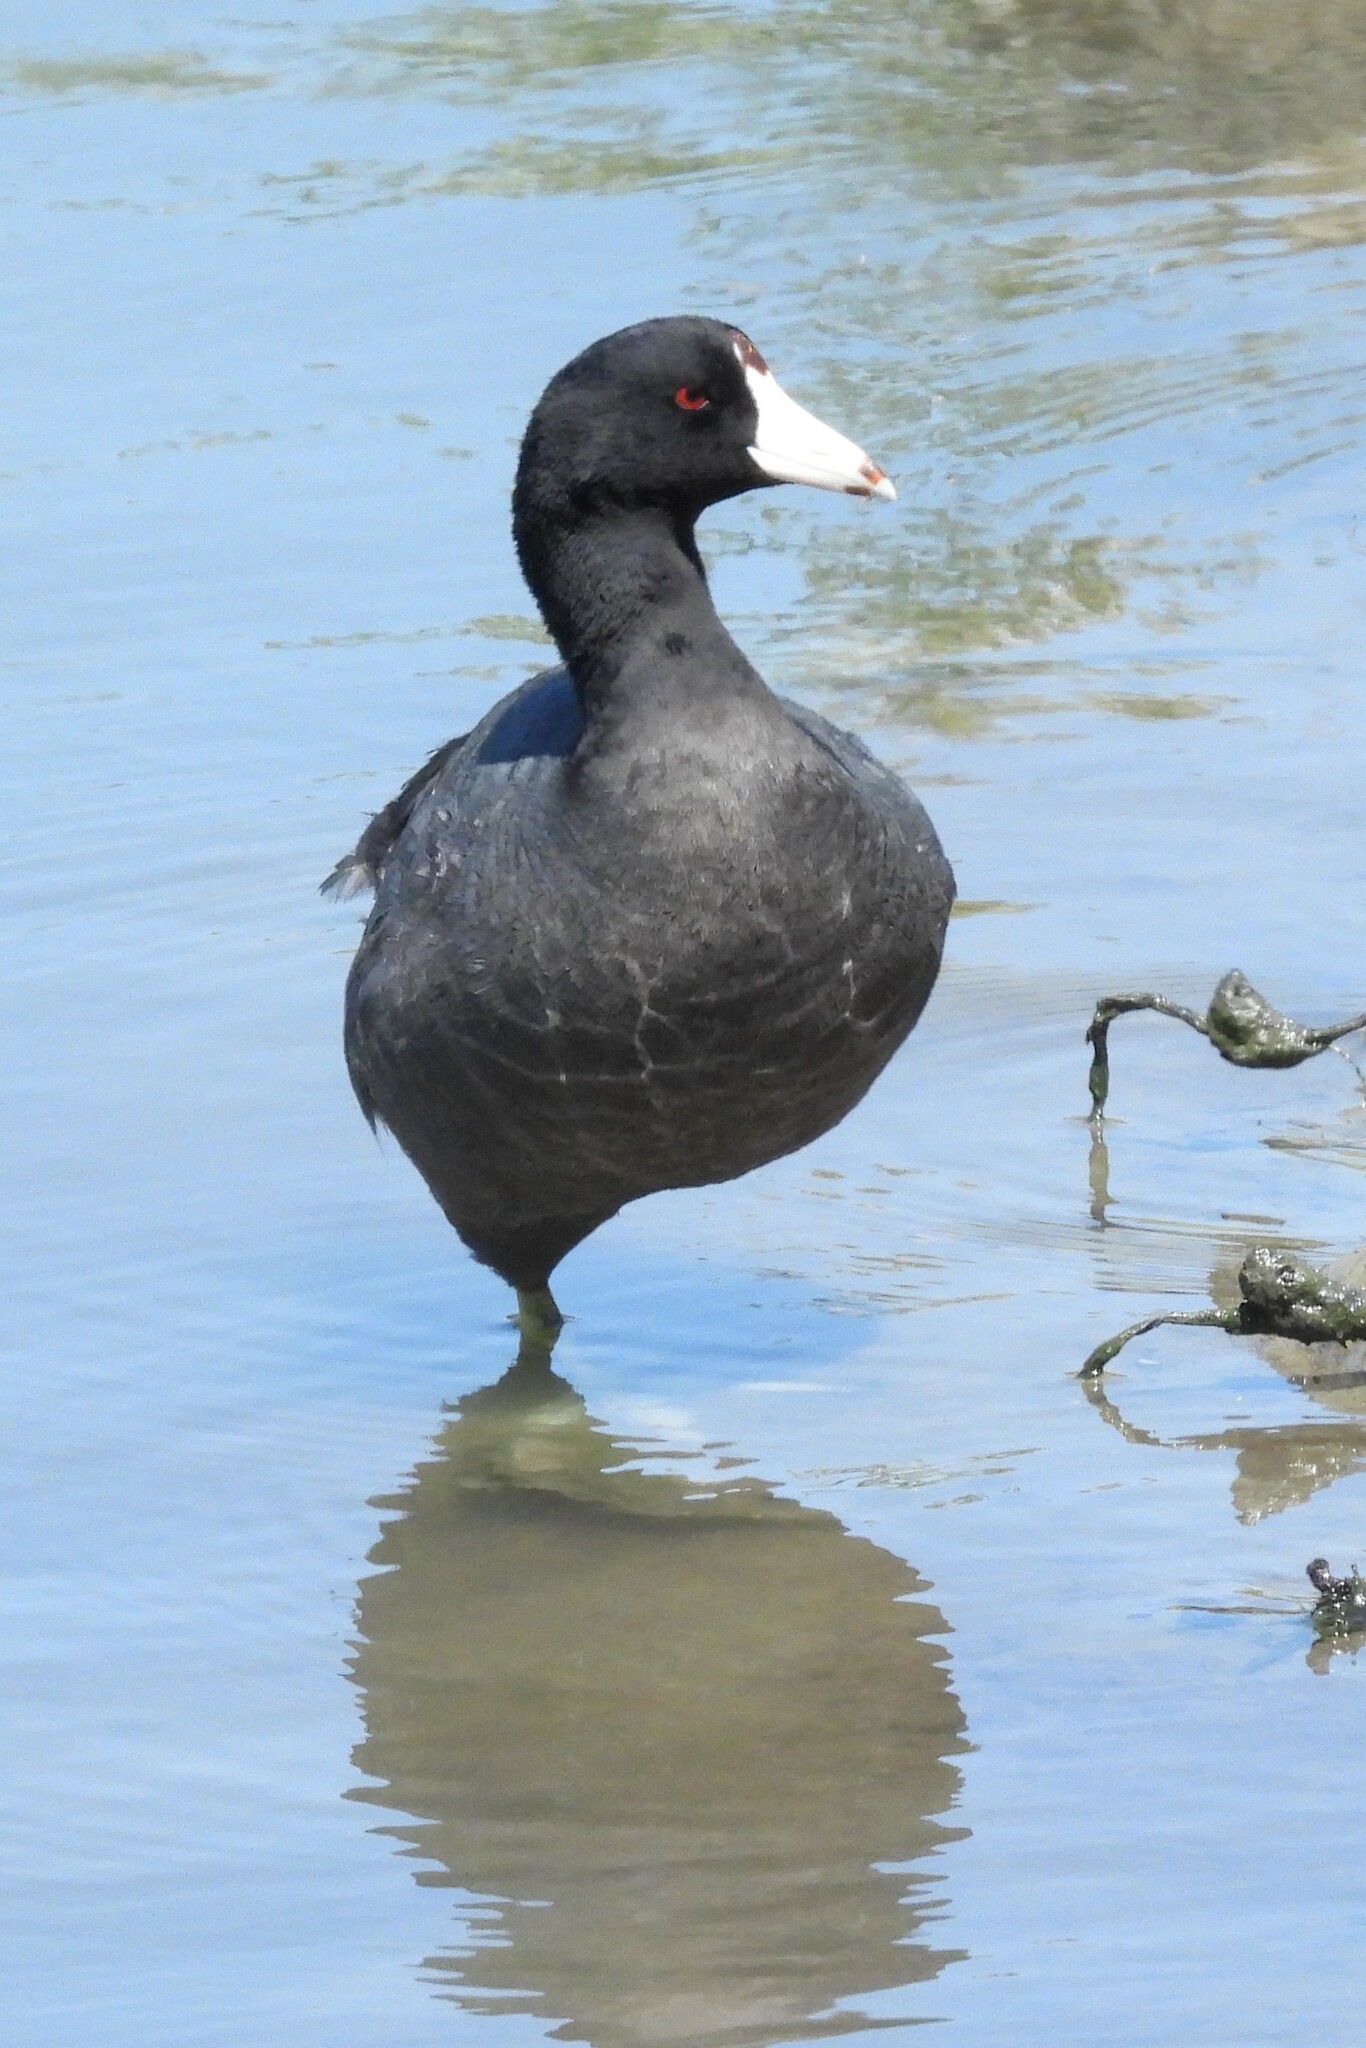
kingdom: Animalia
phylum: Chordata
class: Aves
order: Gruiformes
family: Rallidae
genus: Fulica
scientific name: Fulica americana
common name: American coot
